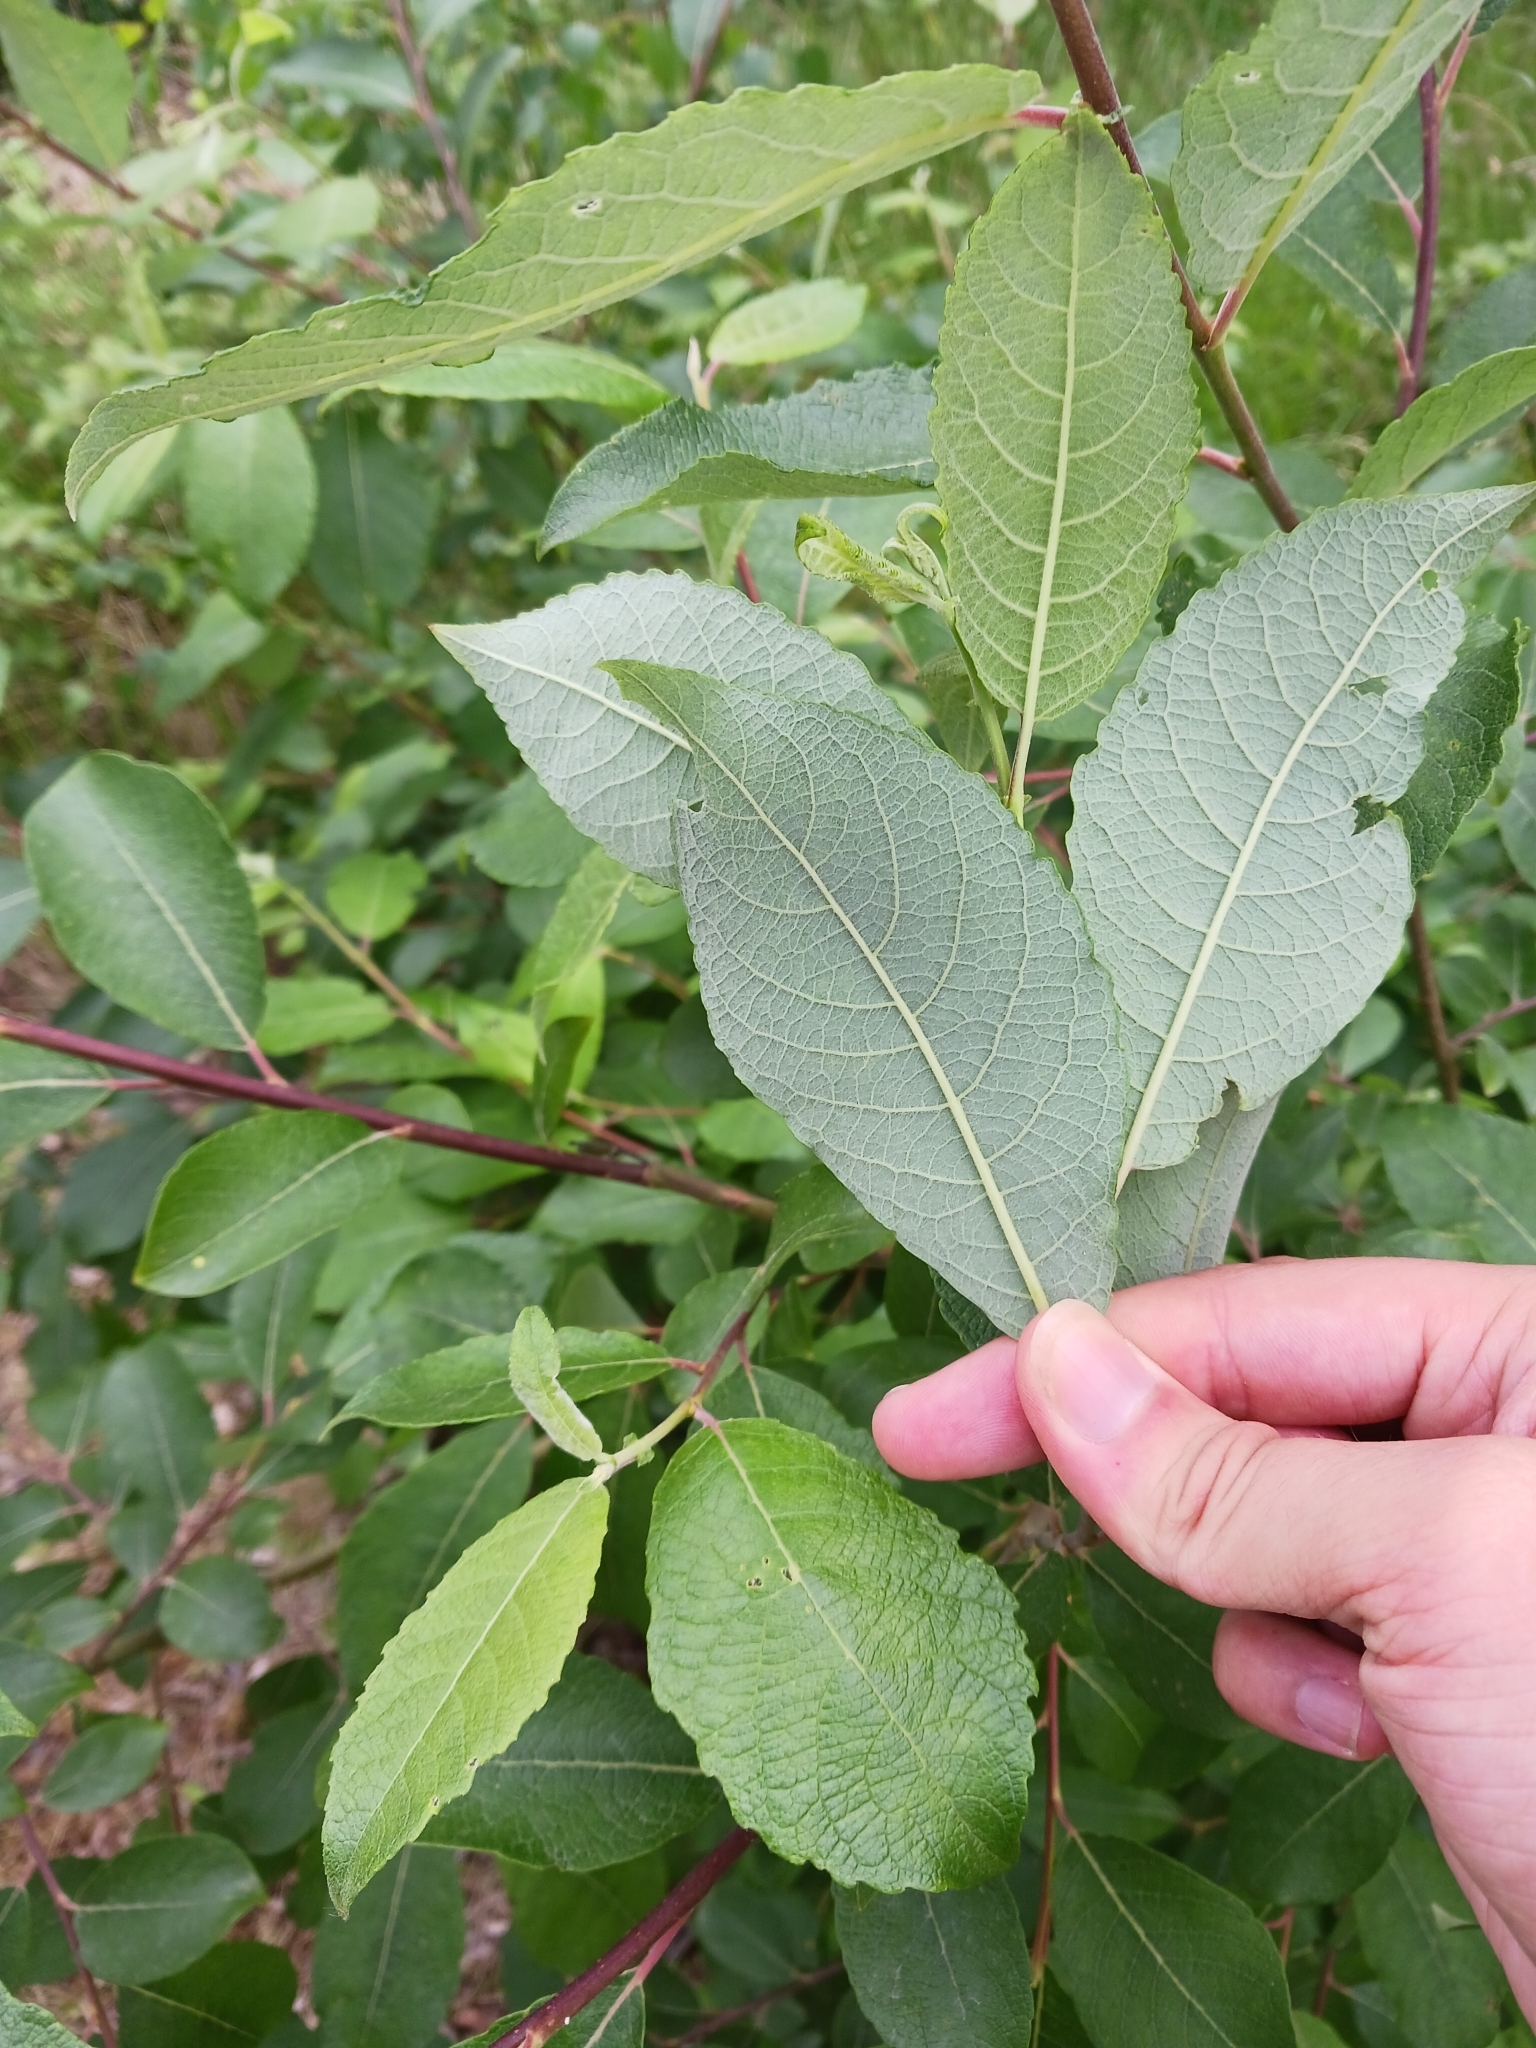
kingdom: Plantae
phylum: Tracheophyta
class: Magnoliopsida
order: Malpighiales
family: Salicaceae
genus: Salix
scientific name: Salix caprea
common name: Goat willow
